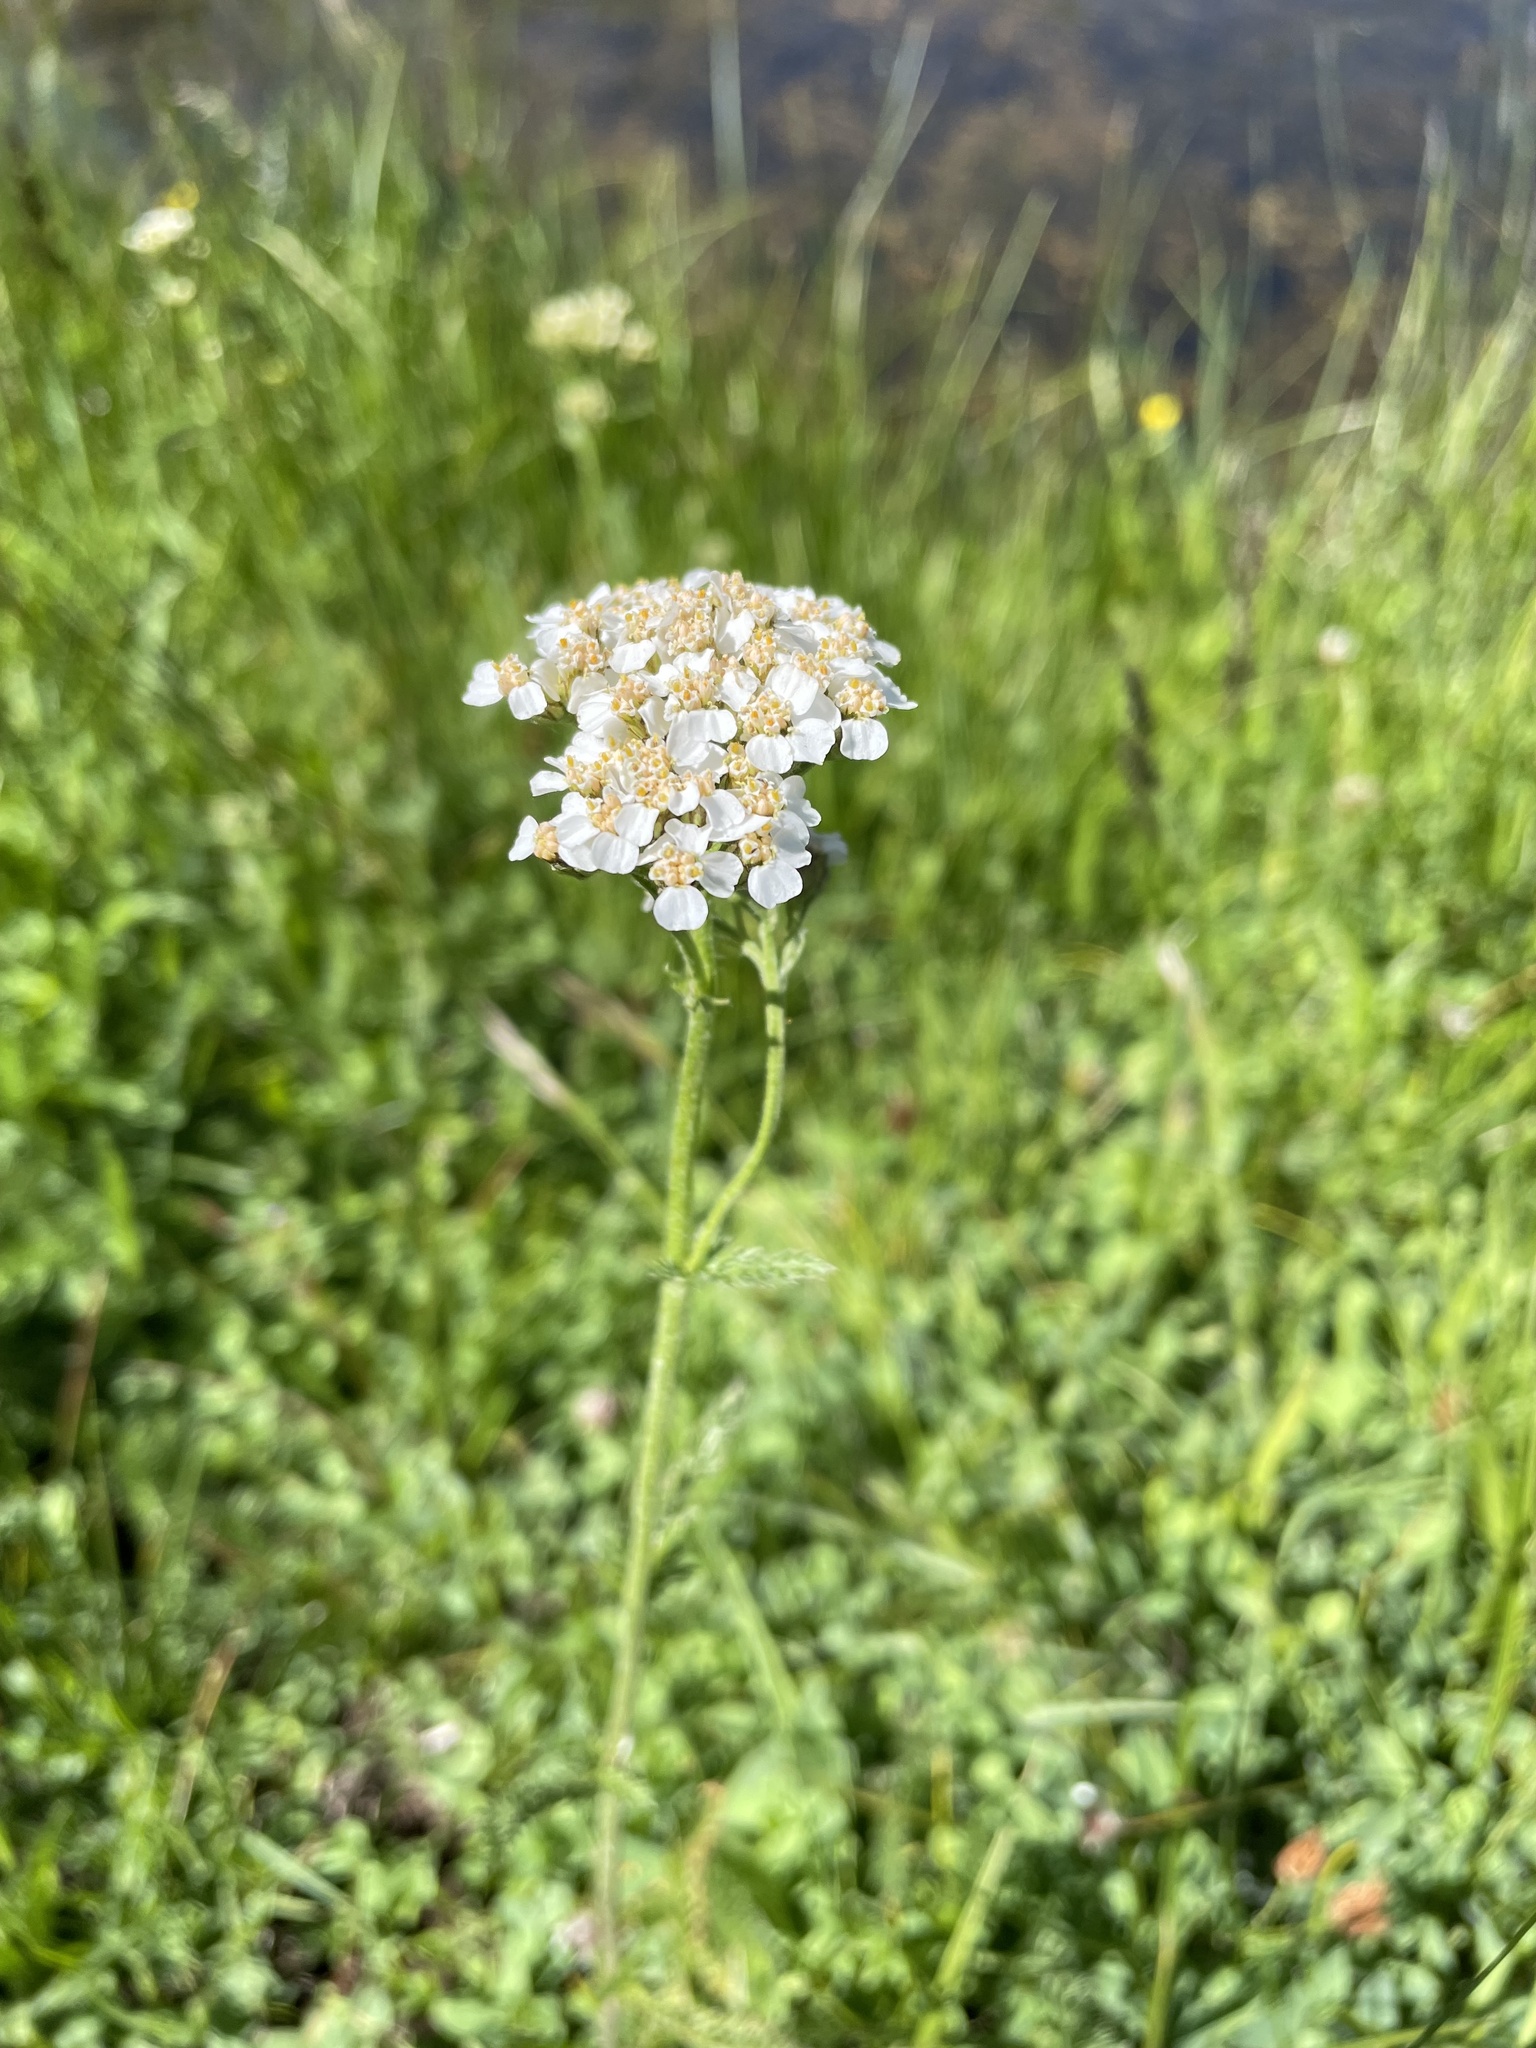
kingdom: Plantae
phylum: Tracheophyta
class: Magnoliopsida
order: Asterales
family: Asteraceae
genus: Achillea
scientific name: Achillea millefolium
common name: Yarrow
